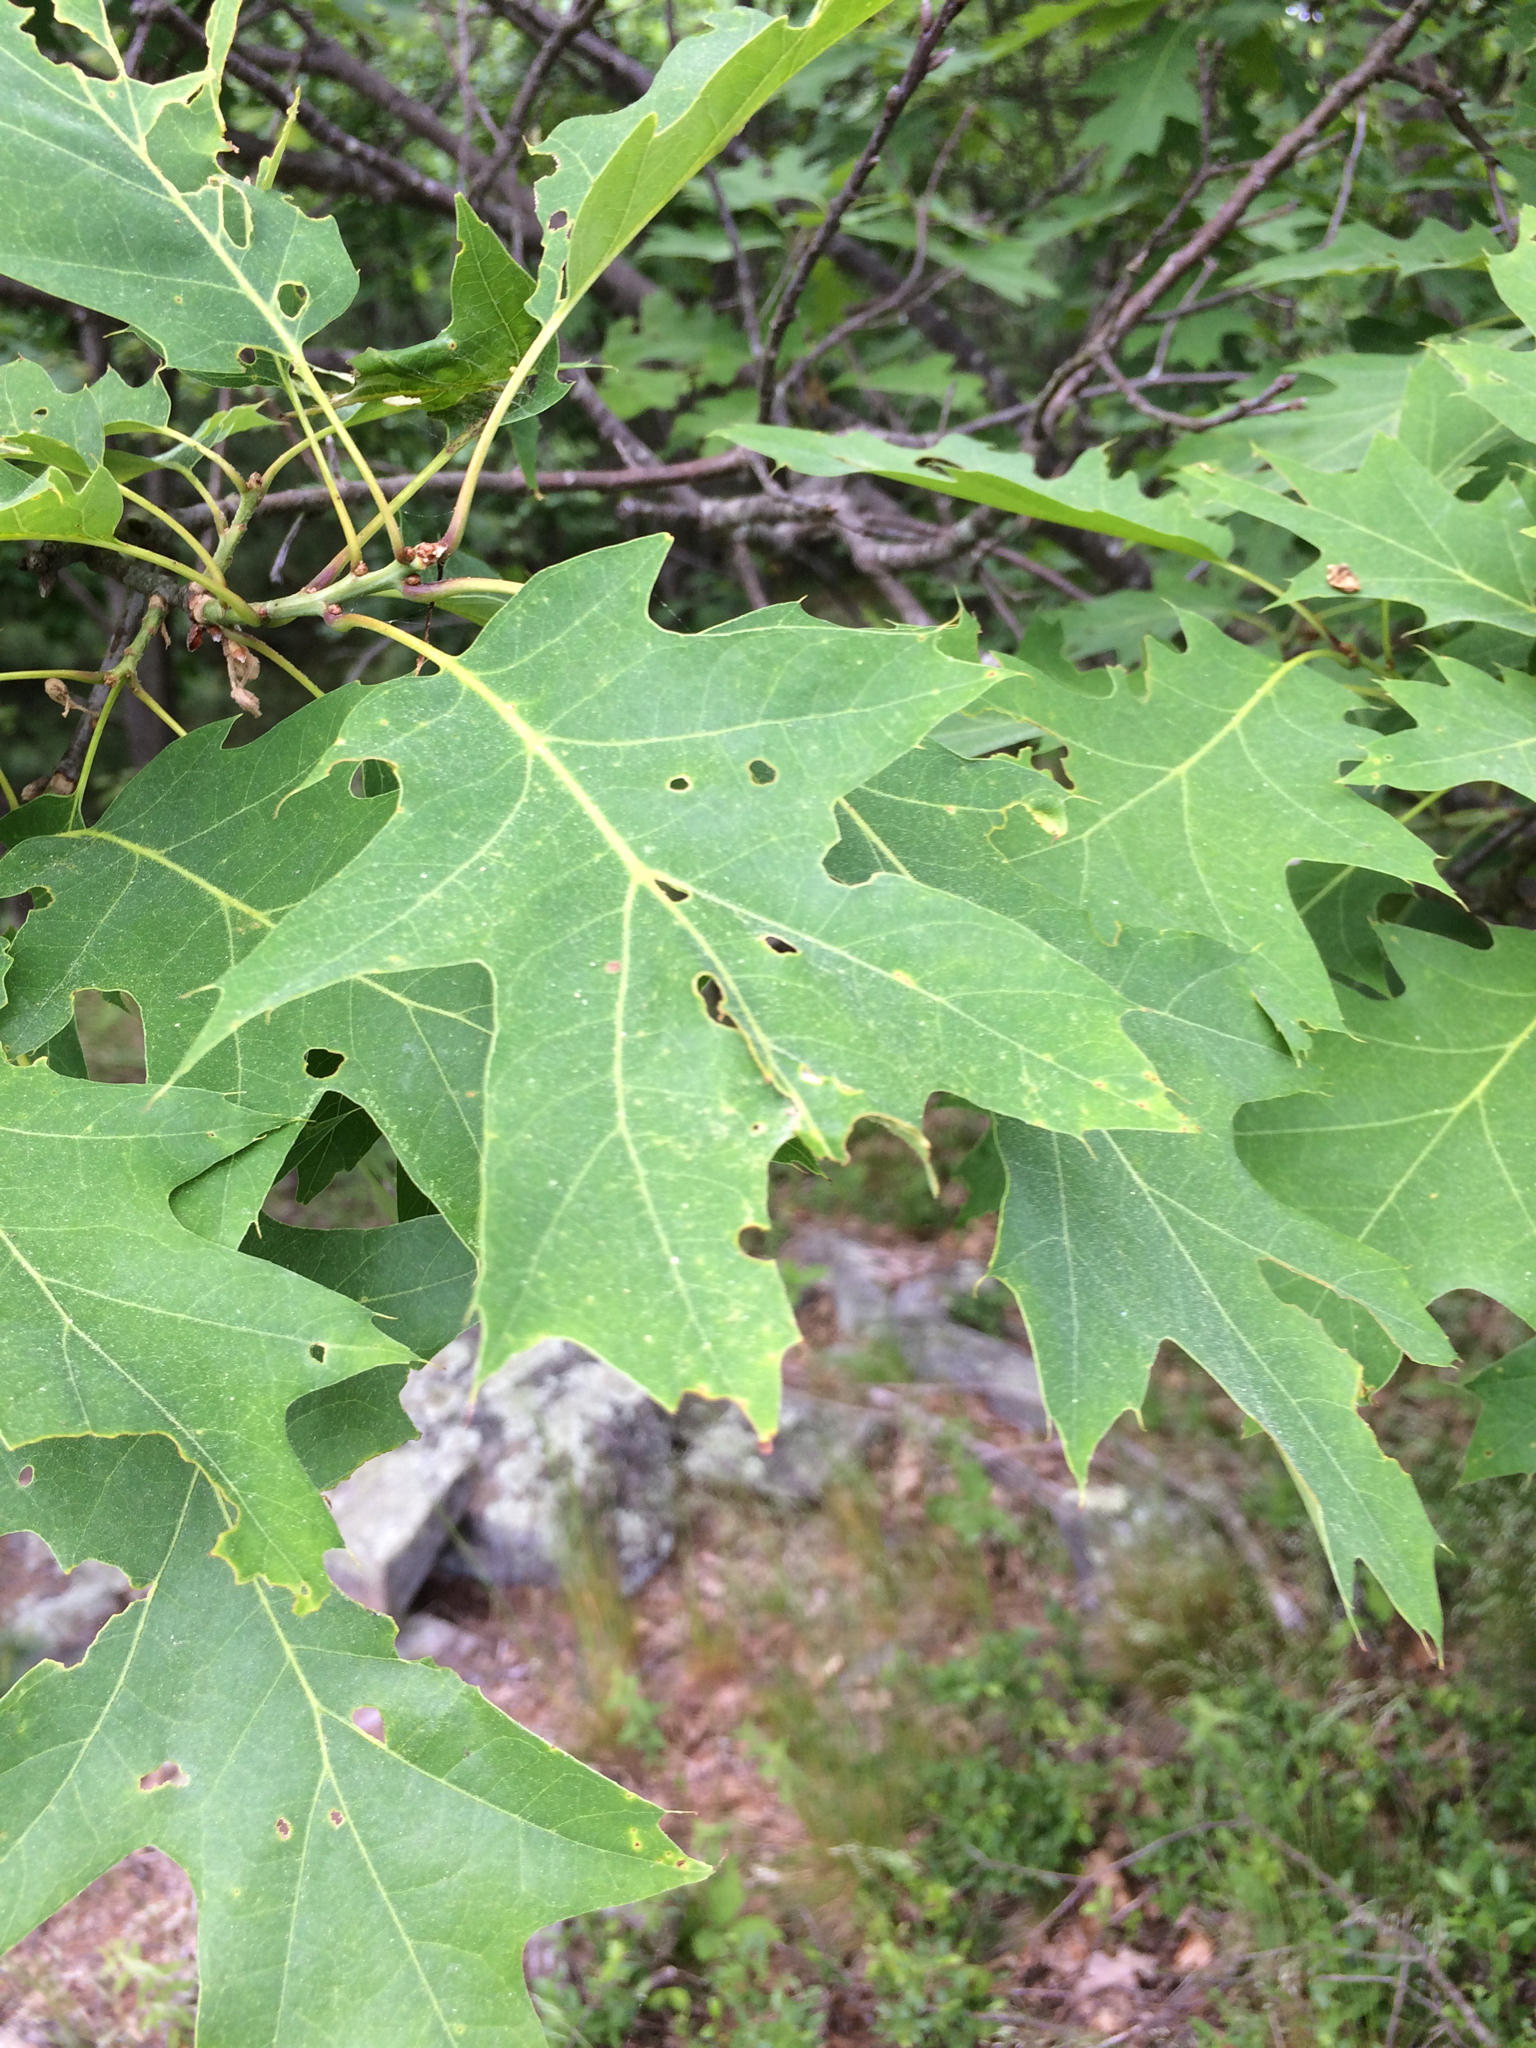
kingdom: Plantae
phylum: Tracheophyta
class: Magnoliopsida
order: Fagales
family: Fagaceae
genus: Quercus
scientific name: Quercus rubra
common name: Red oak
